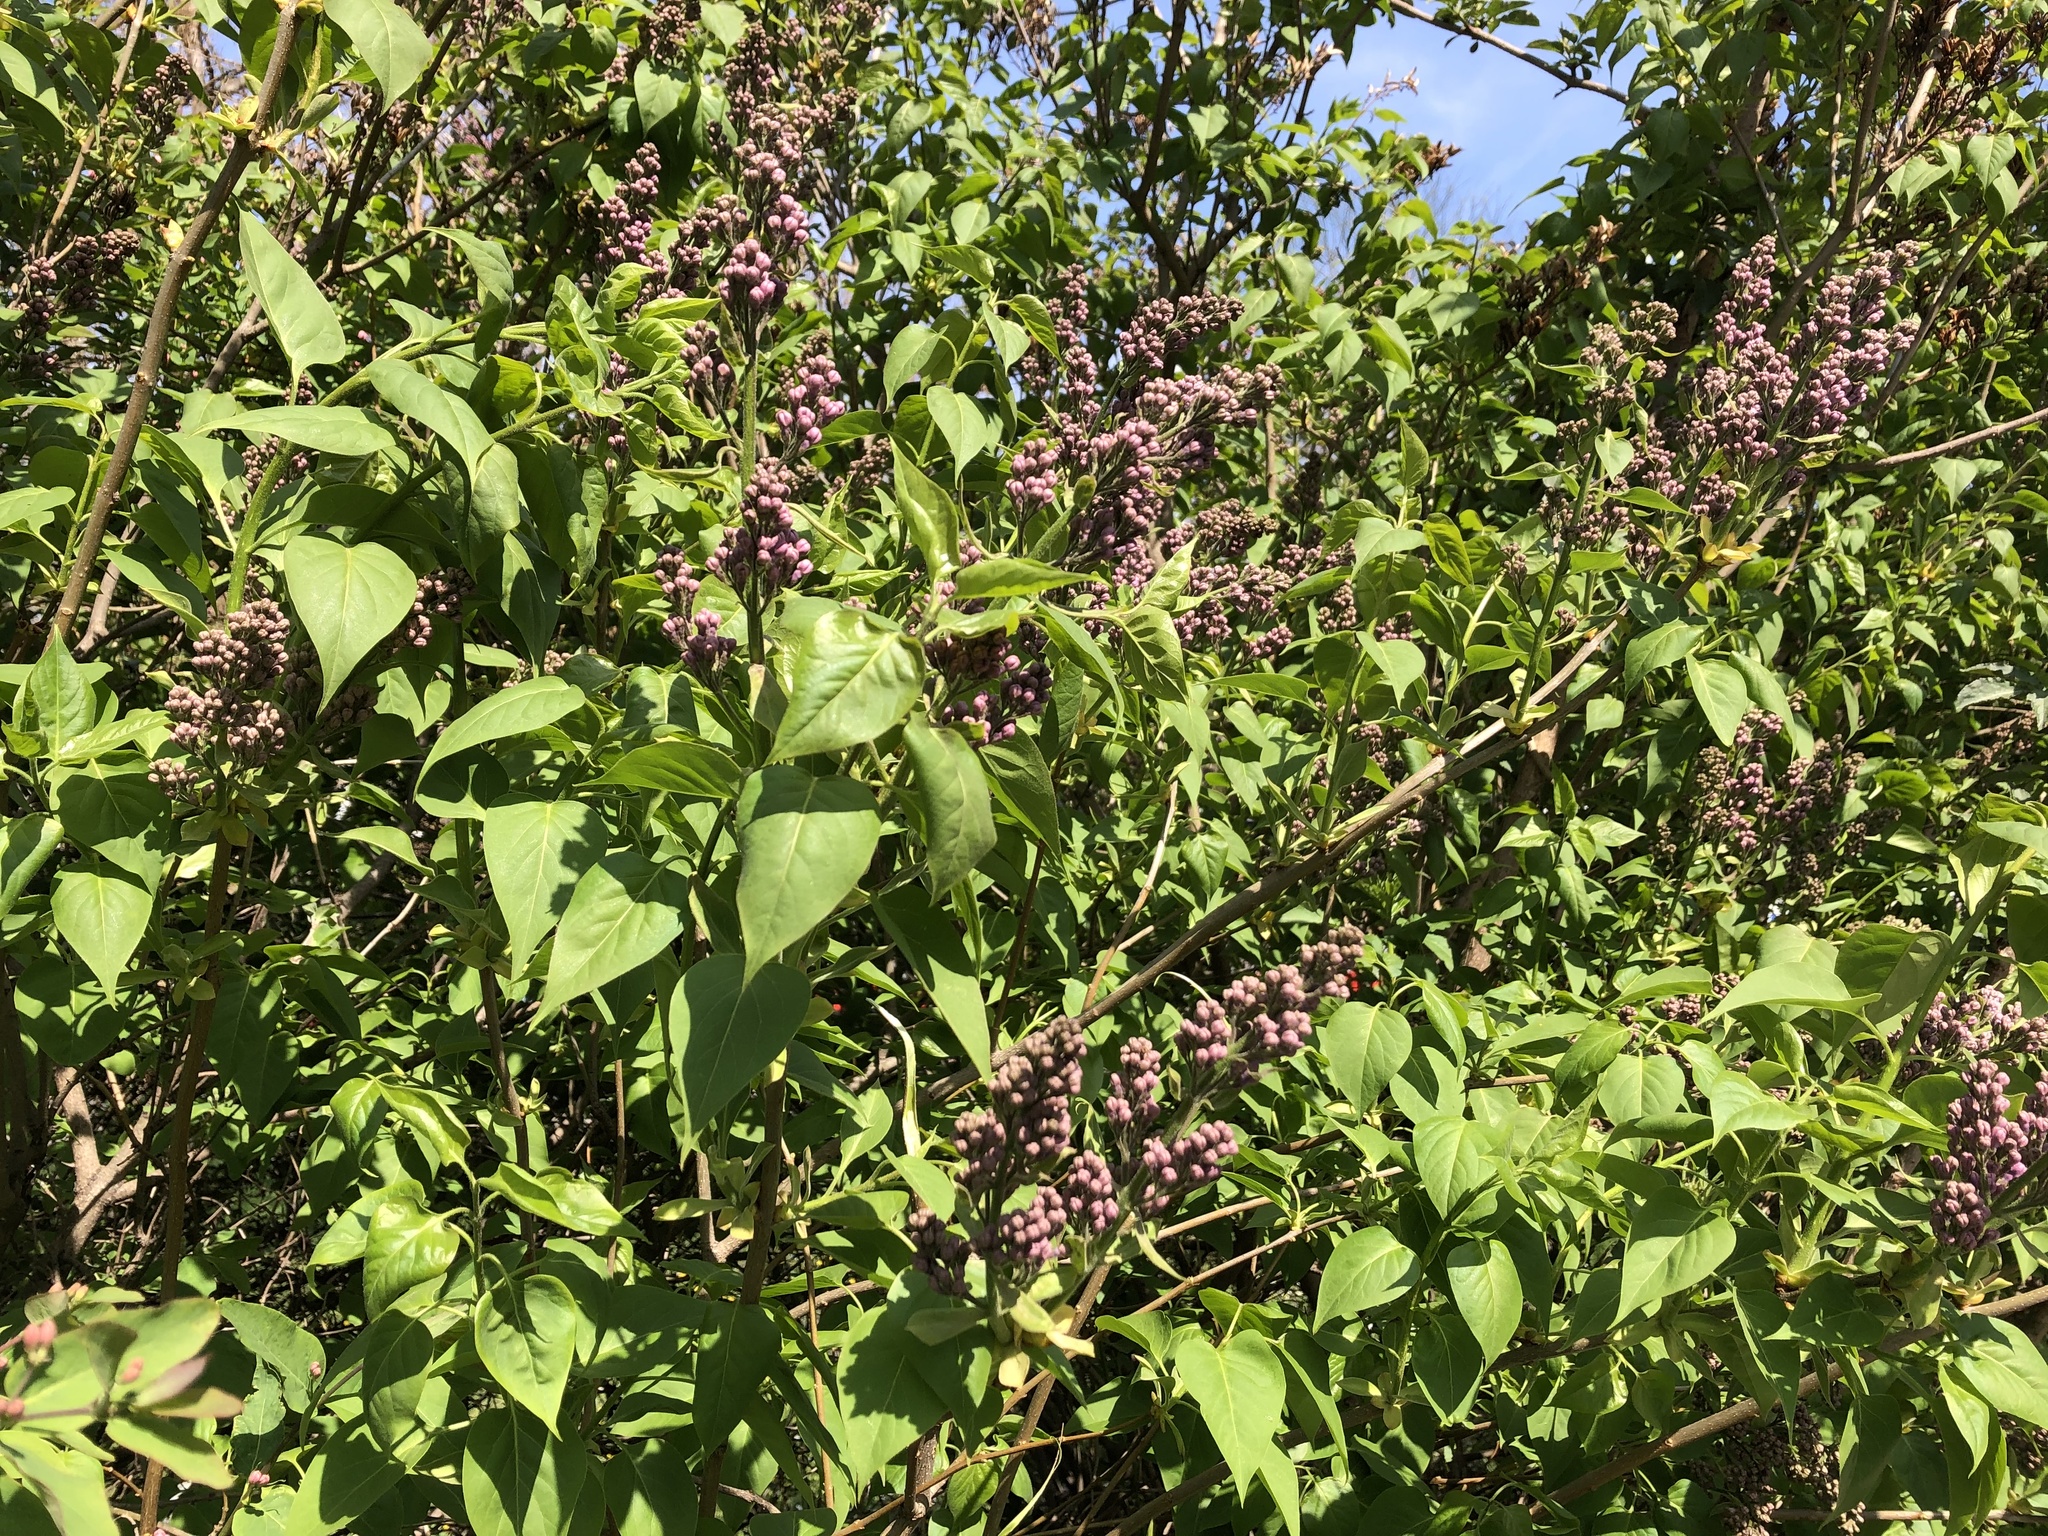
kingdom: Plantae
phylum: Tracheophyta
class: Magnoliopsida
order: Lamiales
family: Oleaceae
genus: Syringa
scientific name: Syringa vulgaris
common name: Common lilac
